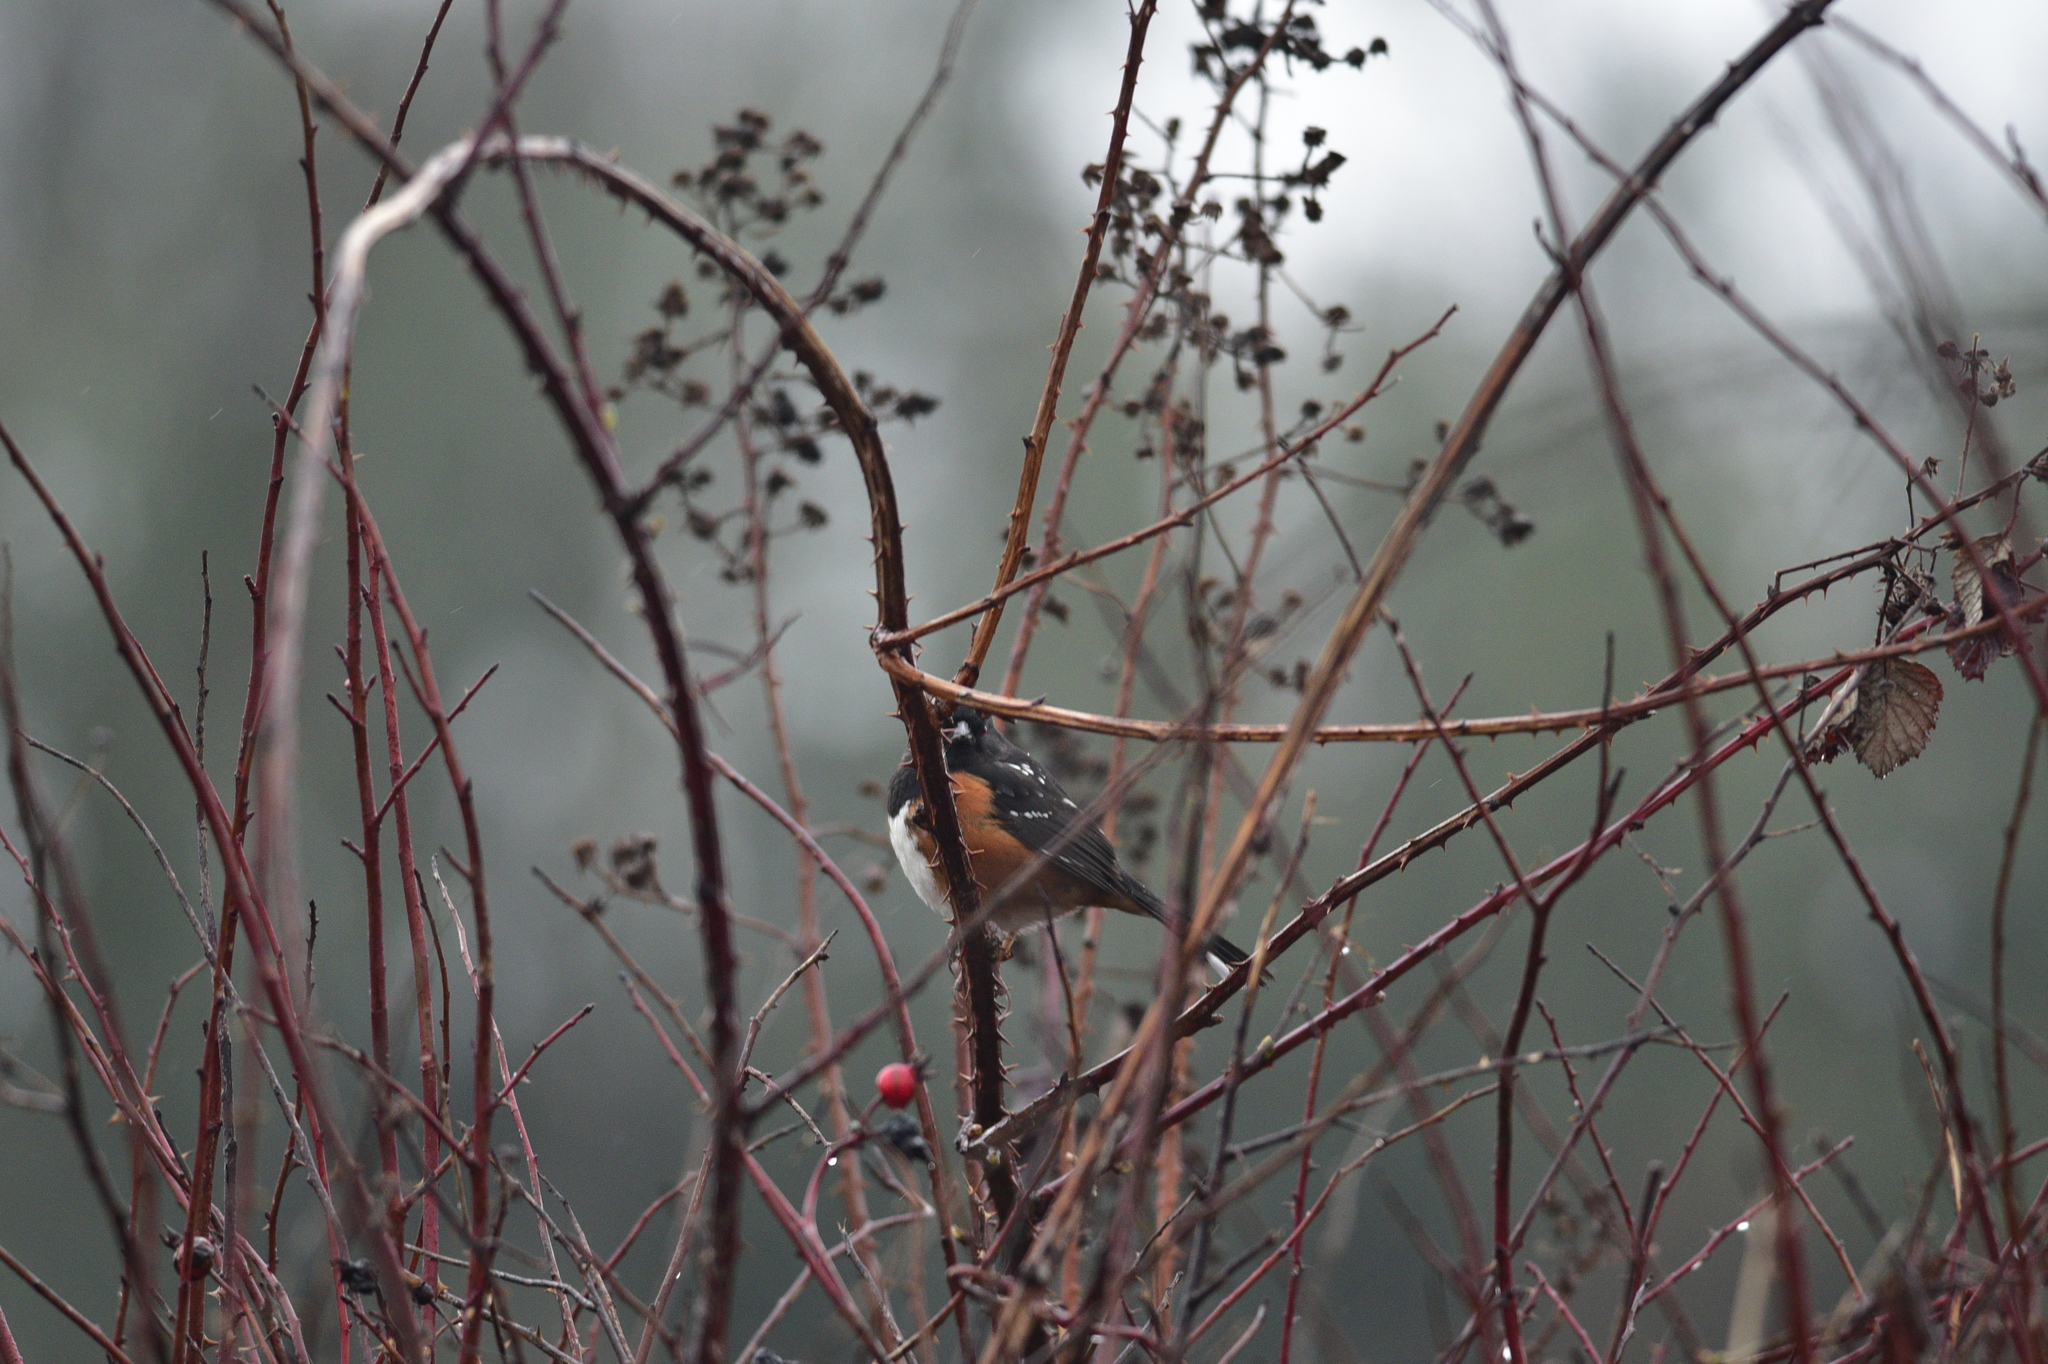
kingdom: Animalia
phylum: Chordata
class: Aves
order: Passeriformes
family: Passerellidae
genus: Pipilo
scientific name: Pipilo maculatus
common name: Spotted towhee
